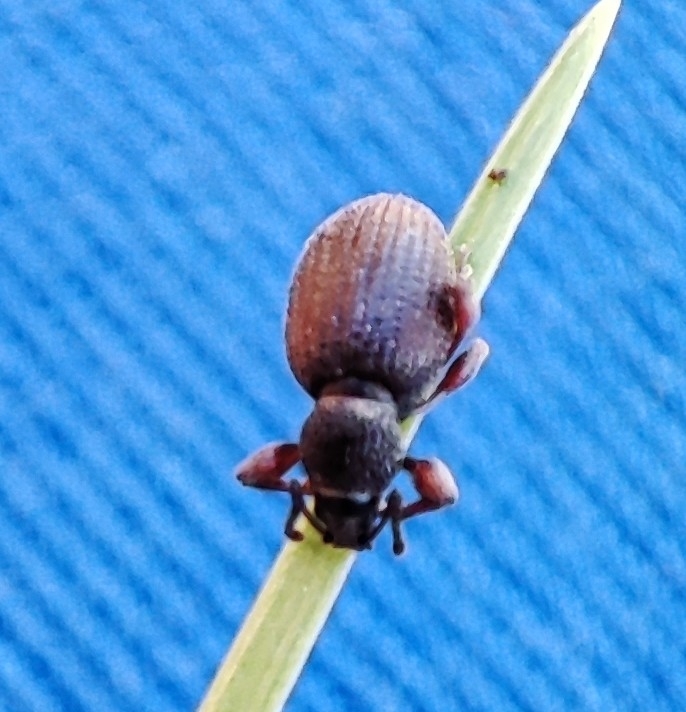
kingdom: Animalia
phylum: Arthropoda
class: Insecta
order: Coleoptera
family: Curculionidae
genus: Otiorhynchus
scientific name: Otiorhynchus ovatus
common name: Strawberry root weevil
